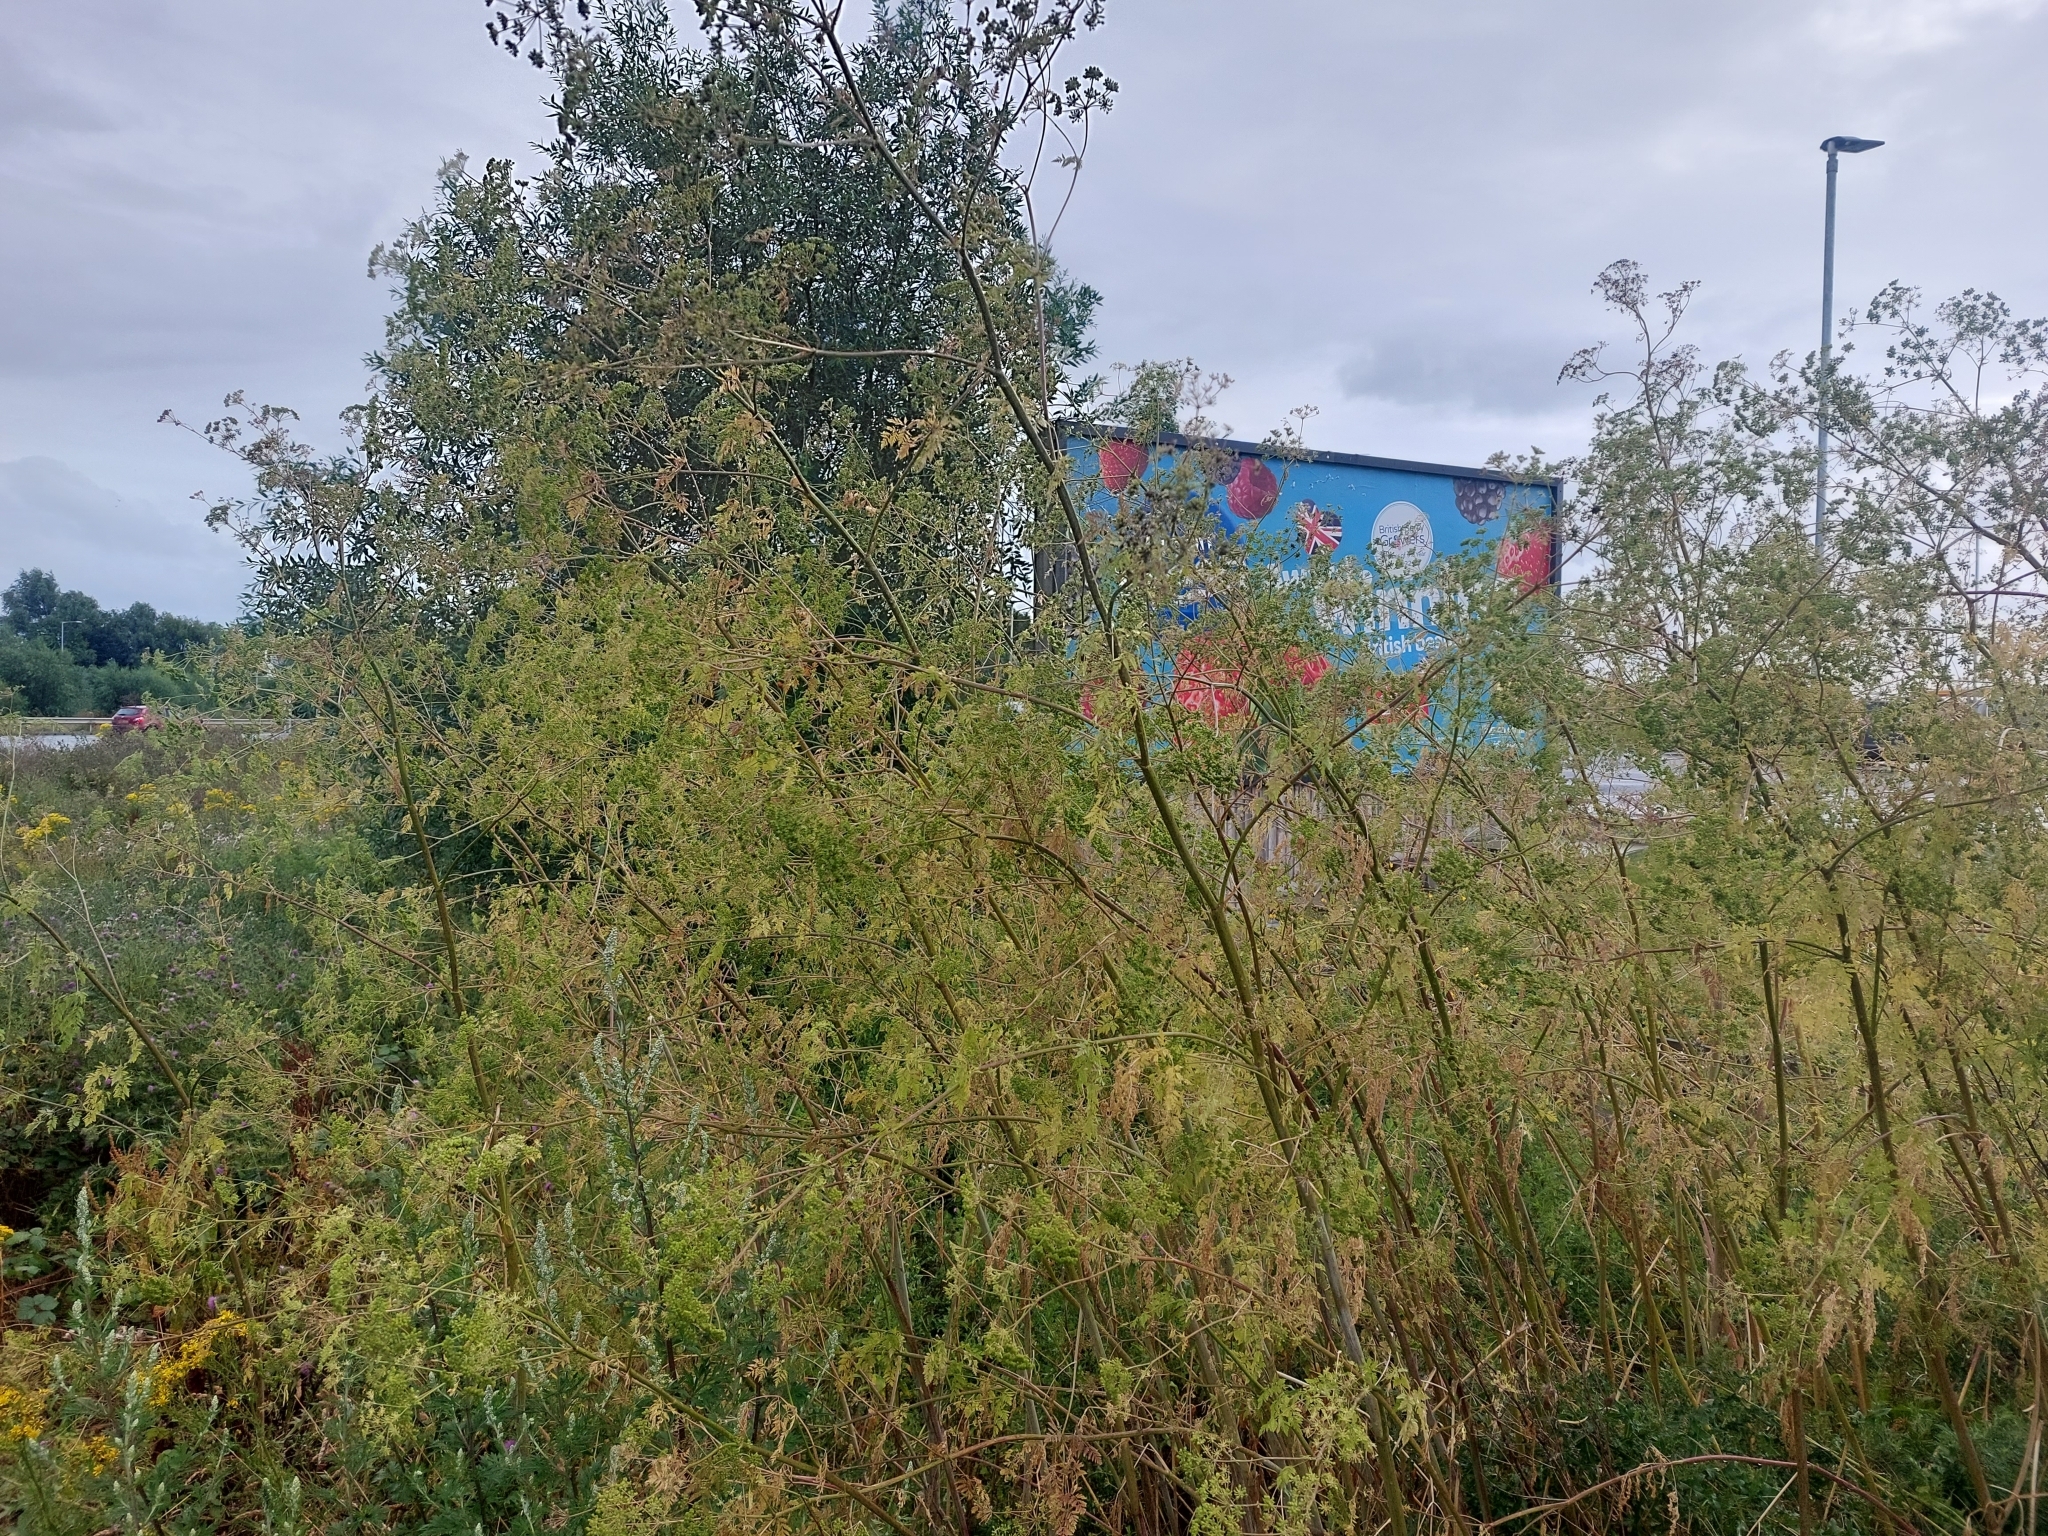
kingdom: Plantae
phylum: Tracheophyta
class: Magnoliopsida
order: Apiales
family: Apiaceae
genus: Conium
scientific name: Conium maculatum
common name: Hemlock
